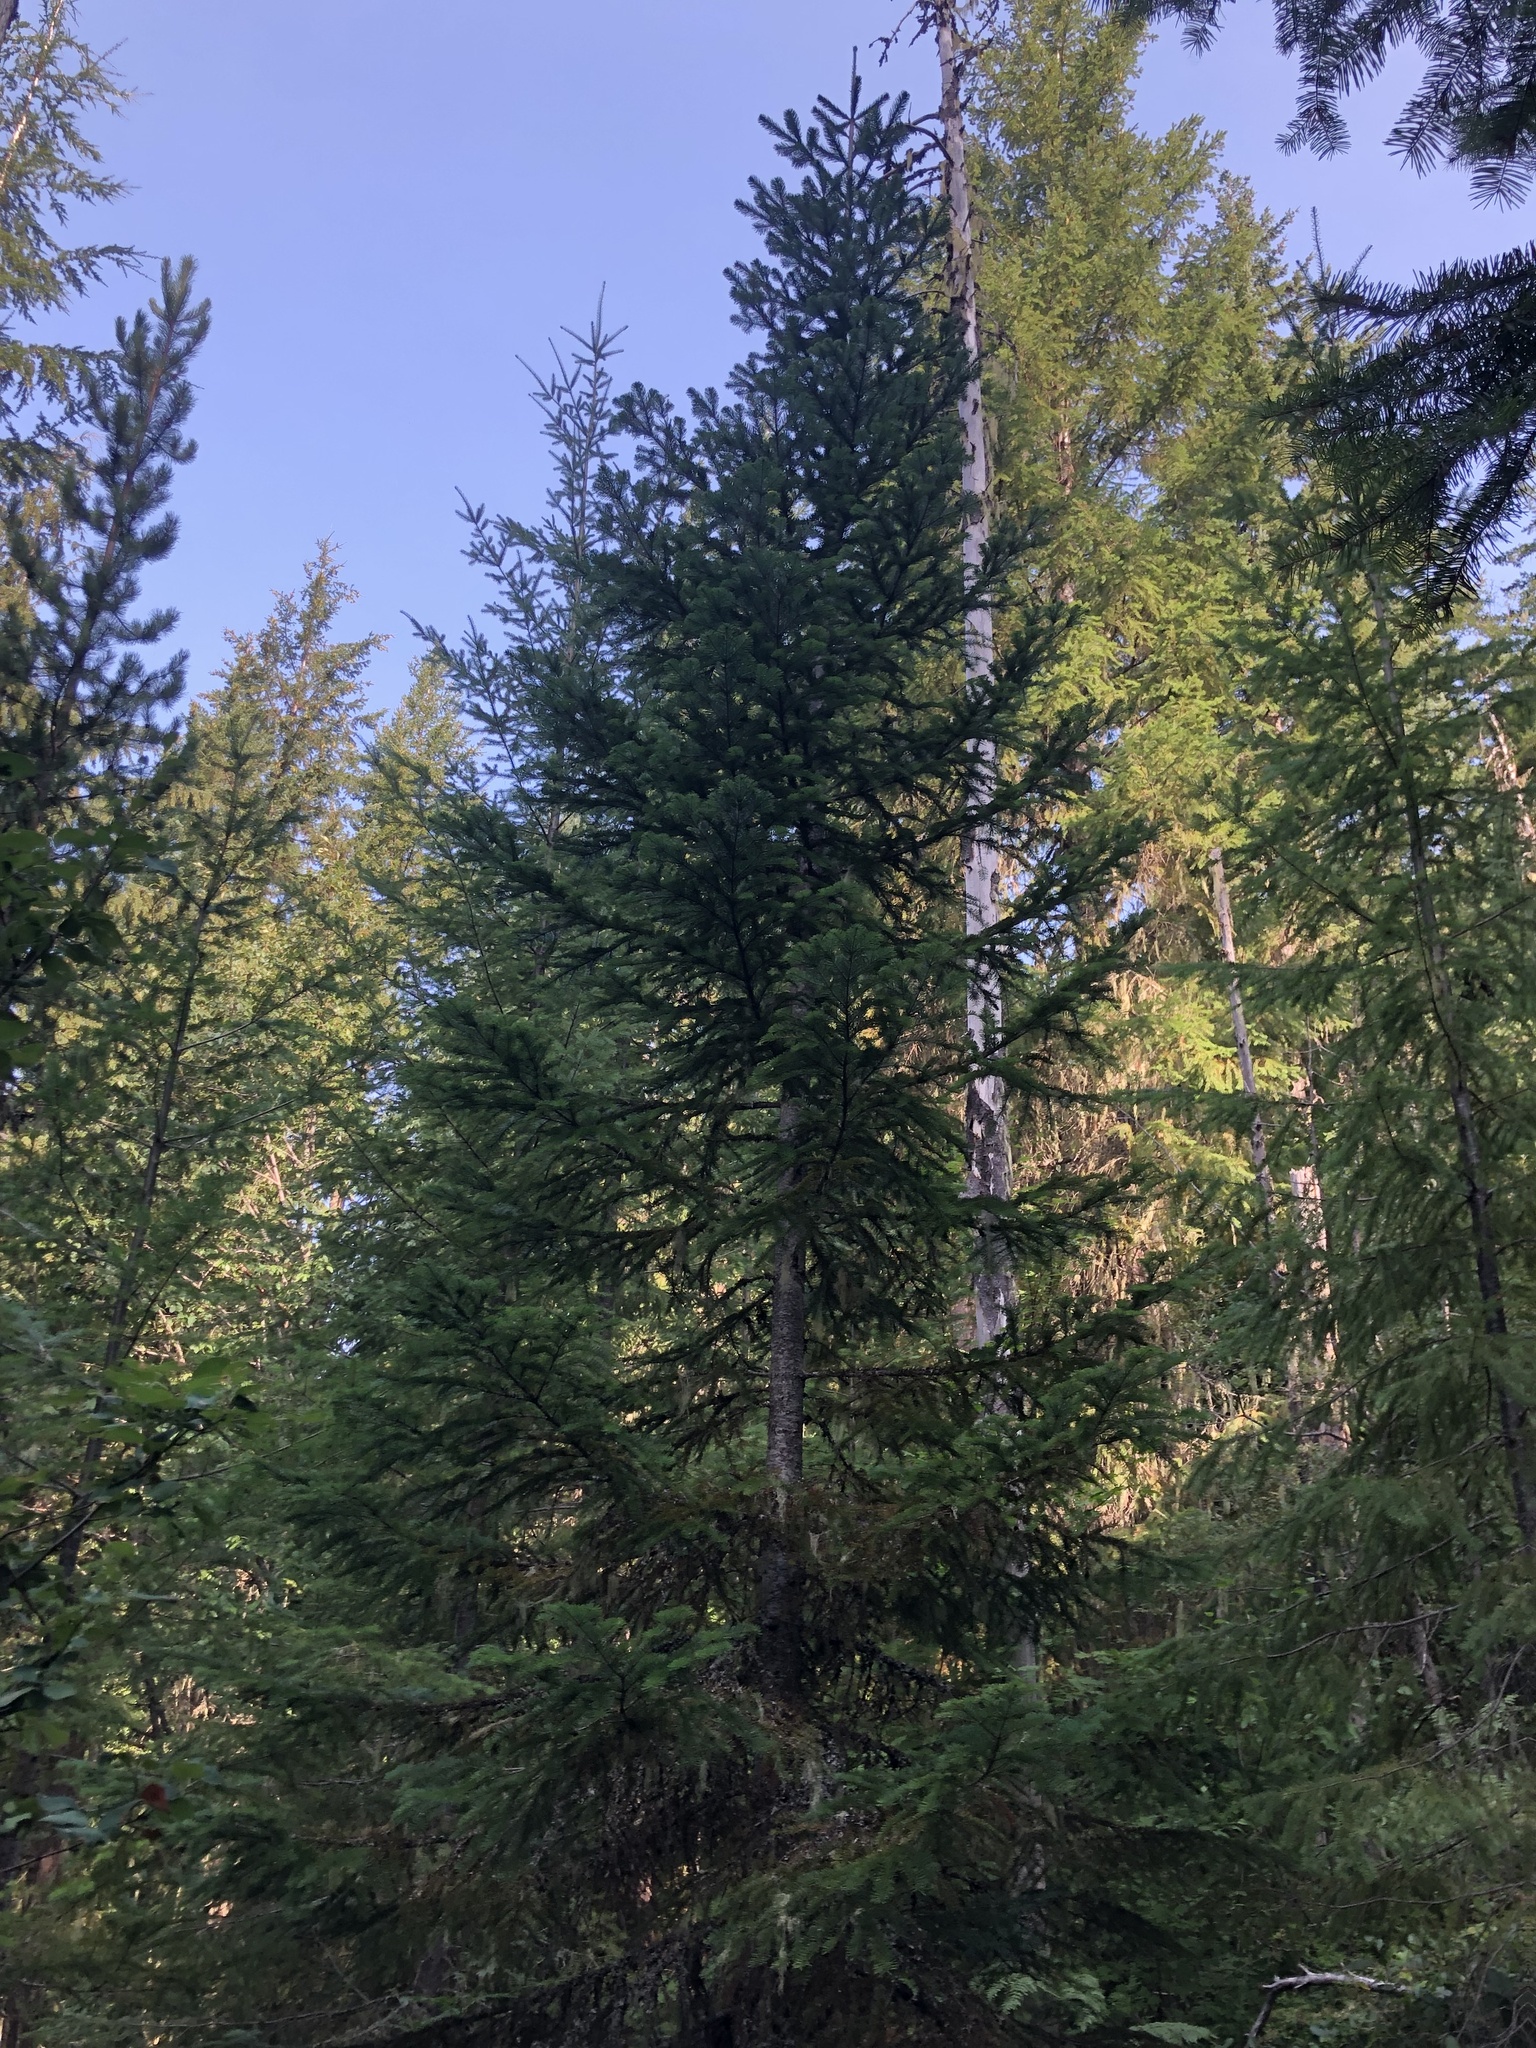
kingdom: Plantae
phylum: Tracheophyta
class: Pinopsida
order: Pinales
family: Pinaceae
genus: Abies
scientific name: Abies amabilis
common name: Pacific silver fir
